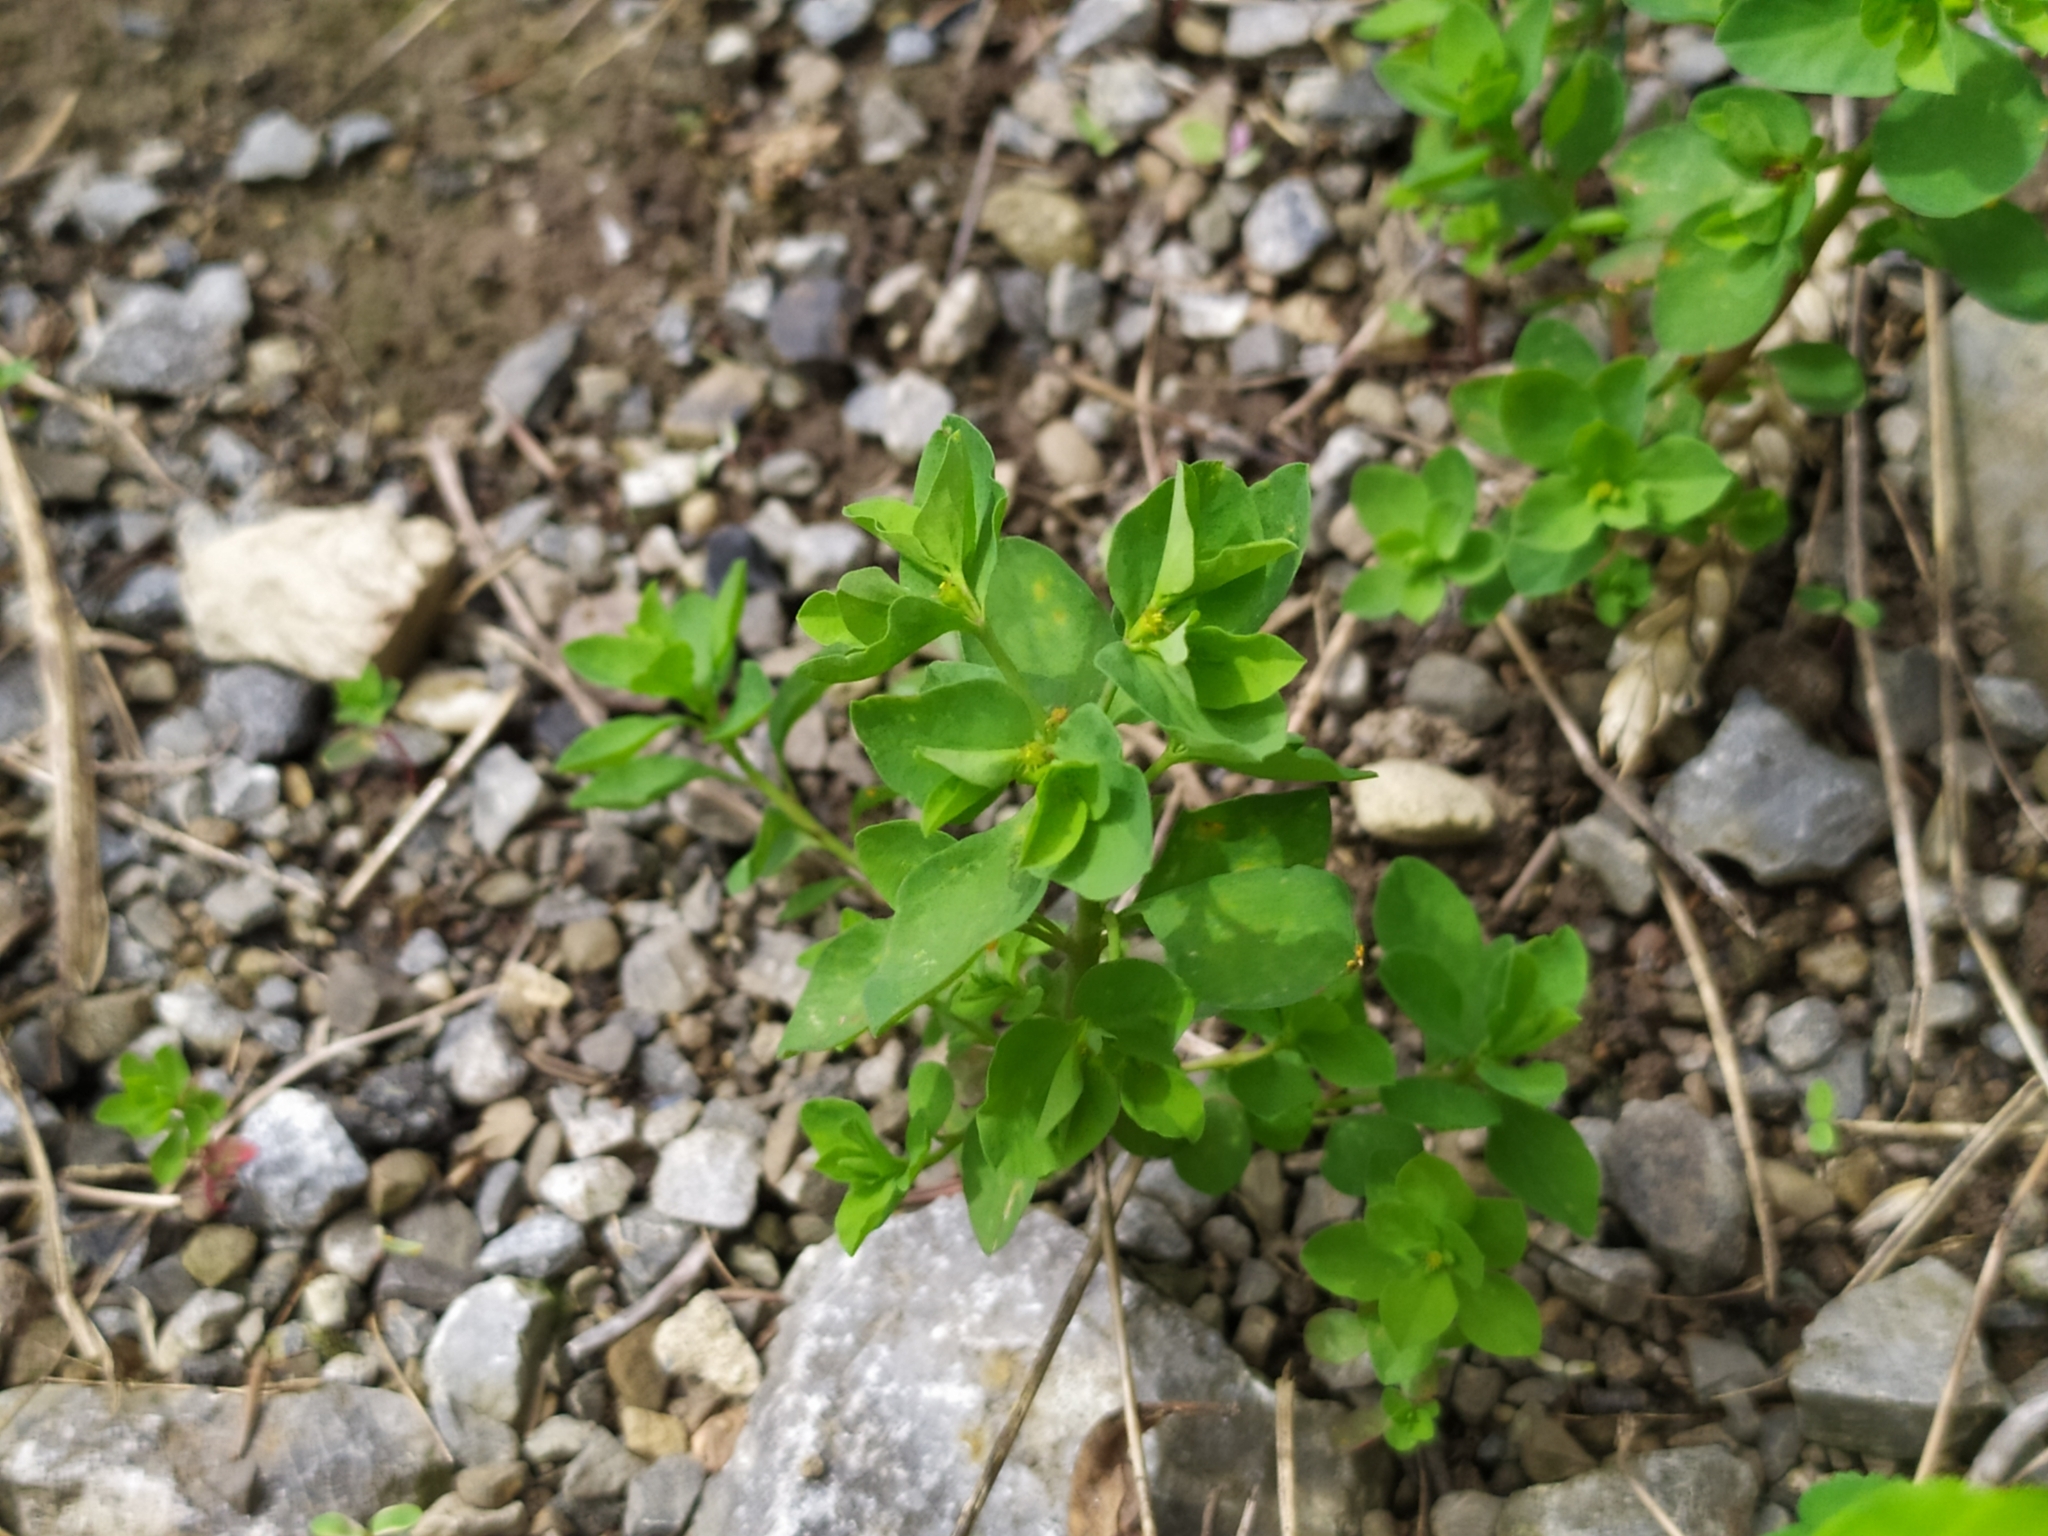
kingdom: Plantae
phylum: Tracheophyta
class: Magnoliopsida
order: Malpighiales
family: Euphorbiaceae
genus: Euphorbia
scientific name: Euphorbia peplus
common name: Petty spurge
